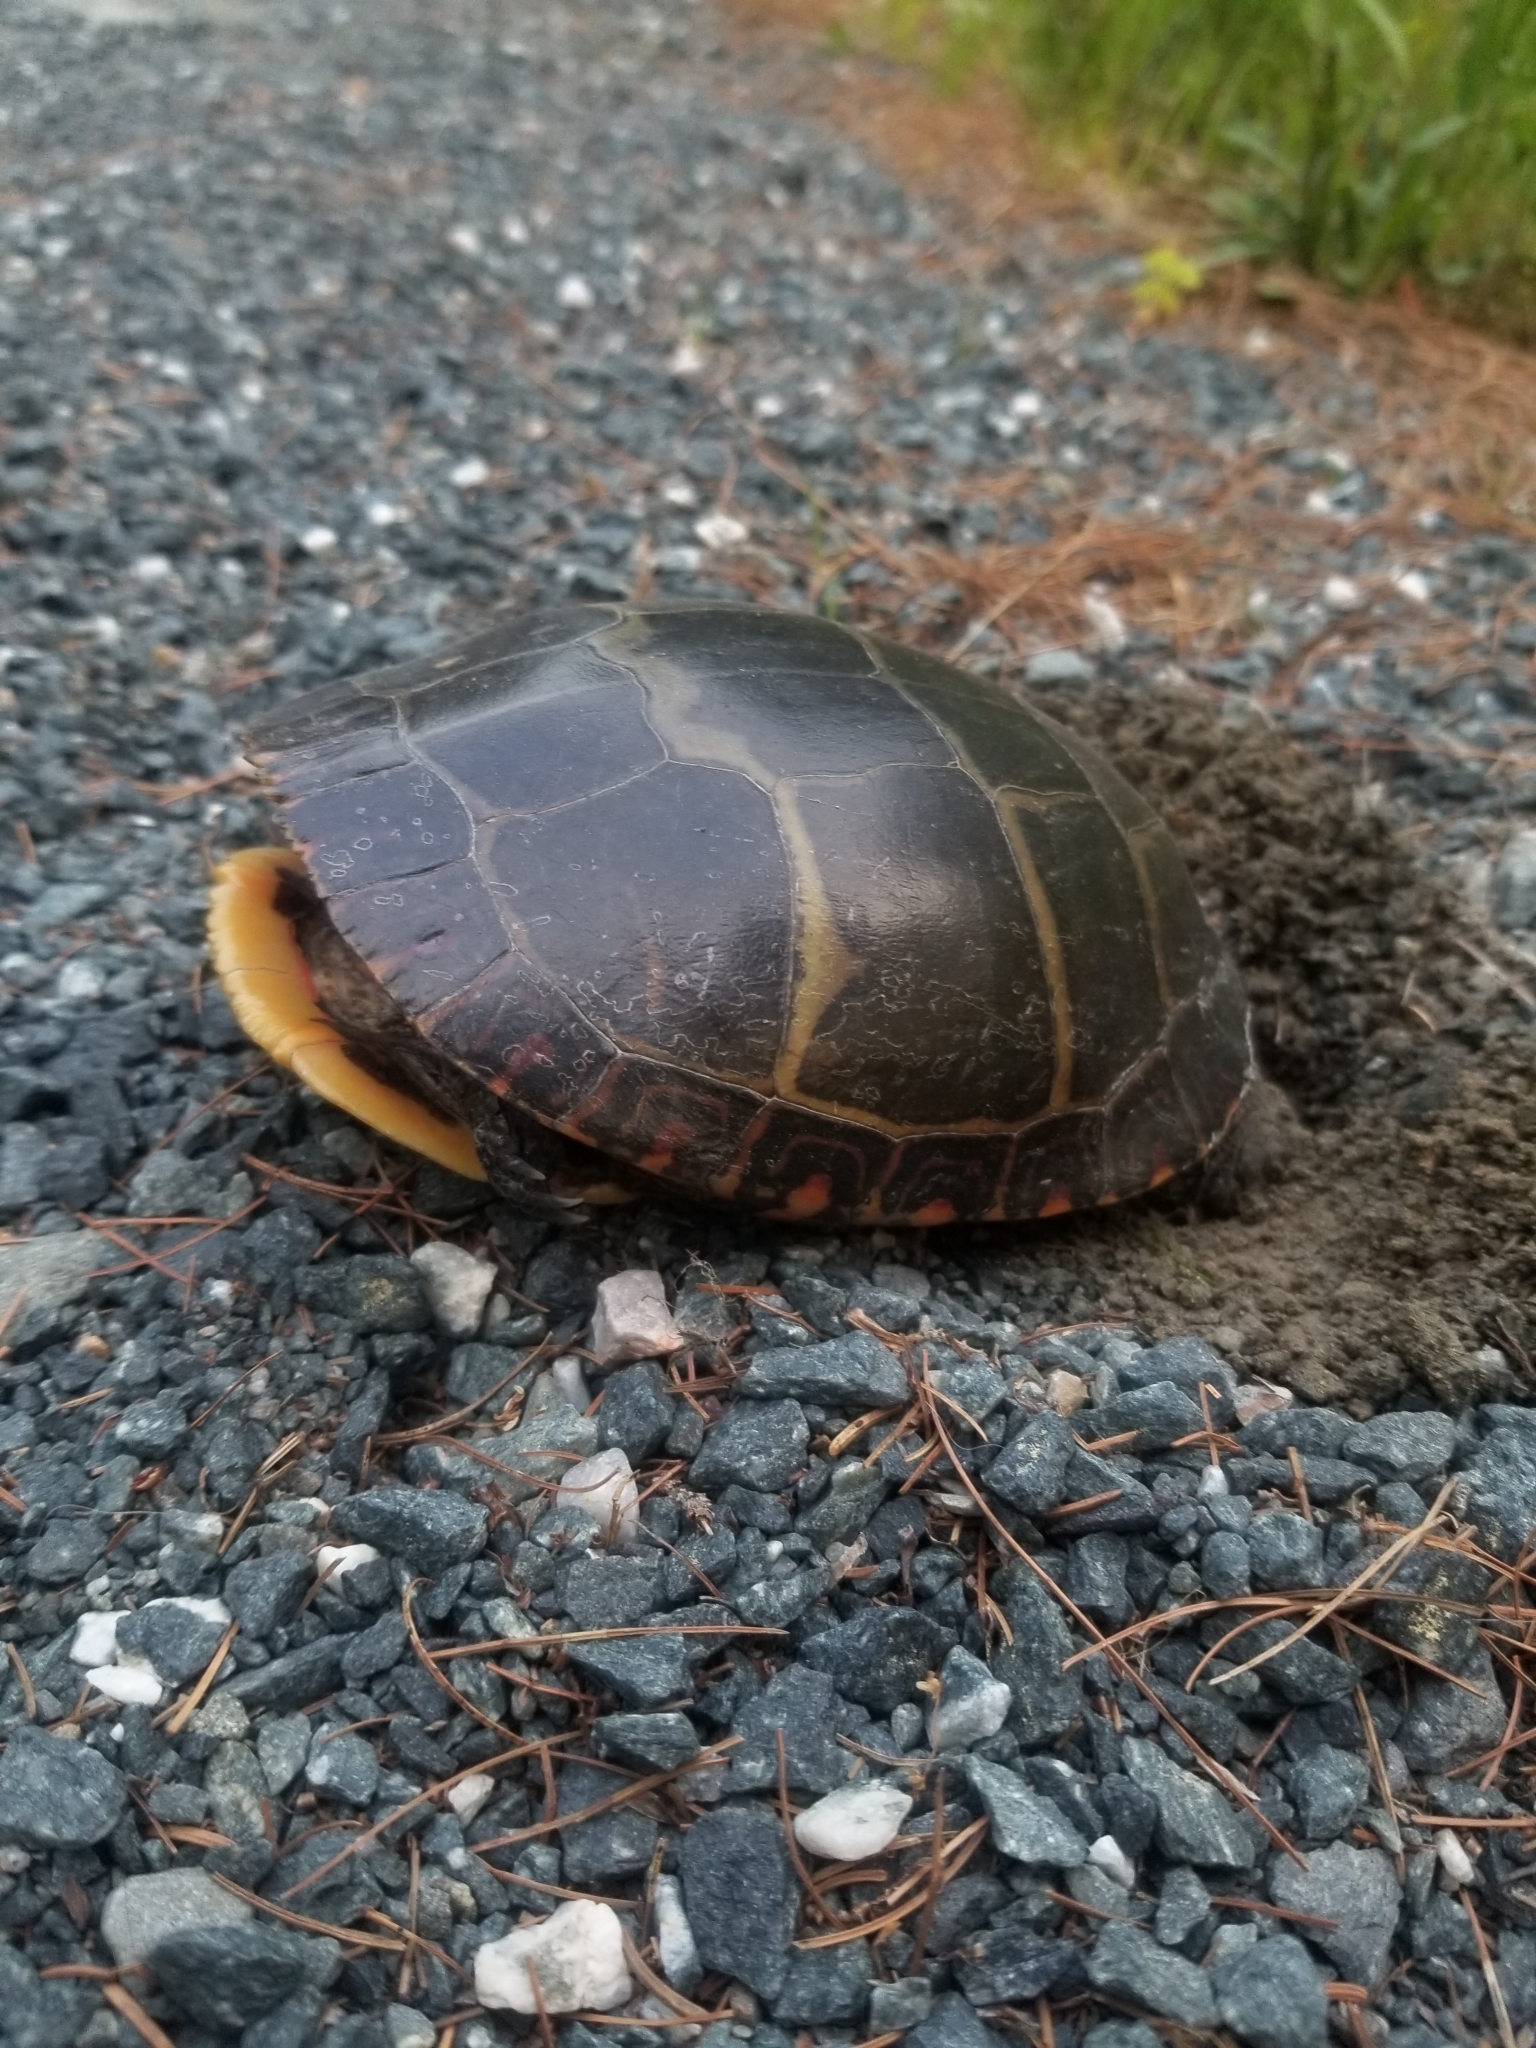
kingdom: Animalia
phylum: Chordata
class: Testudines
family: Emydidae
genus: Chrysemys
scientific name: Chrysemys picta
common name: Painted turtle
